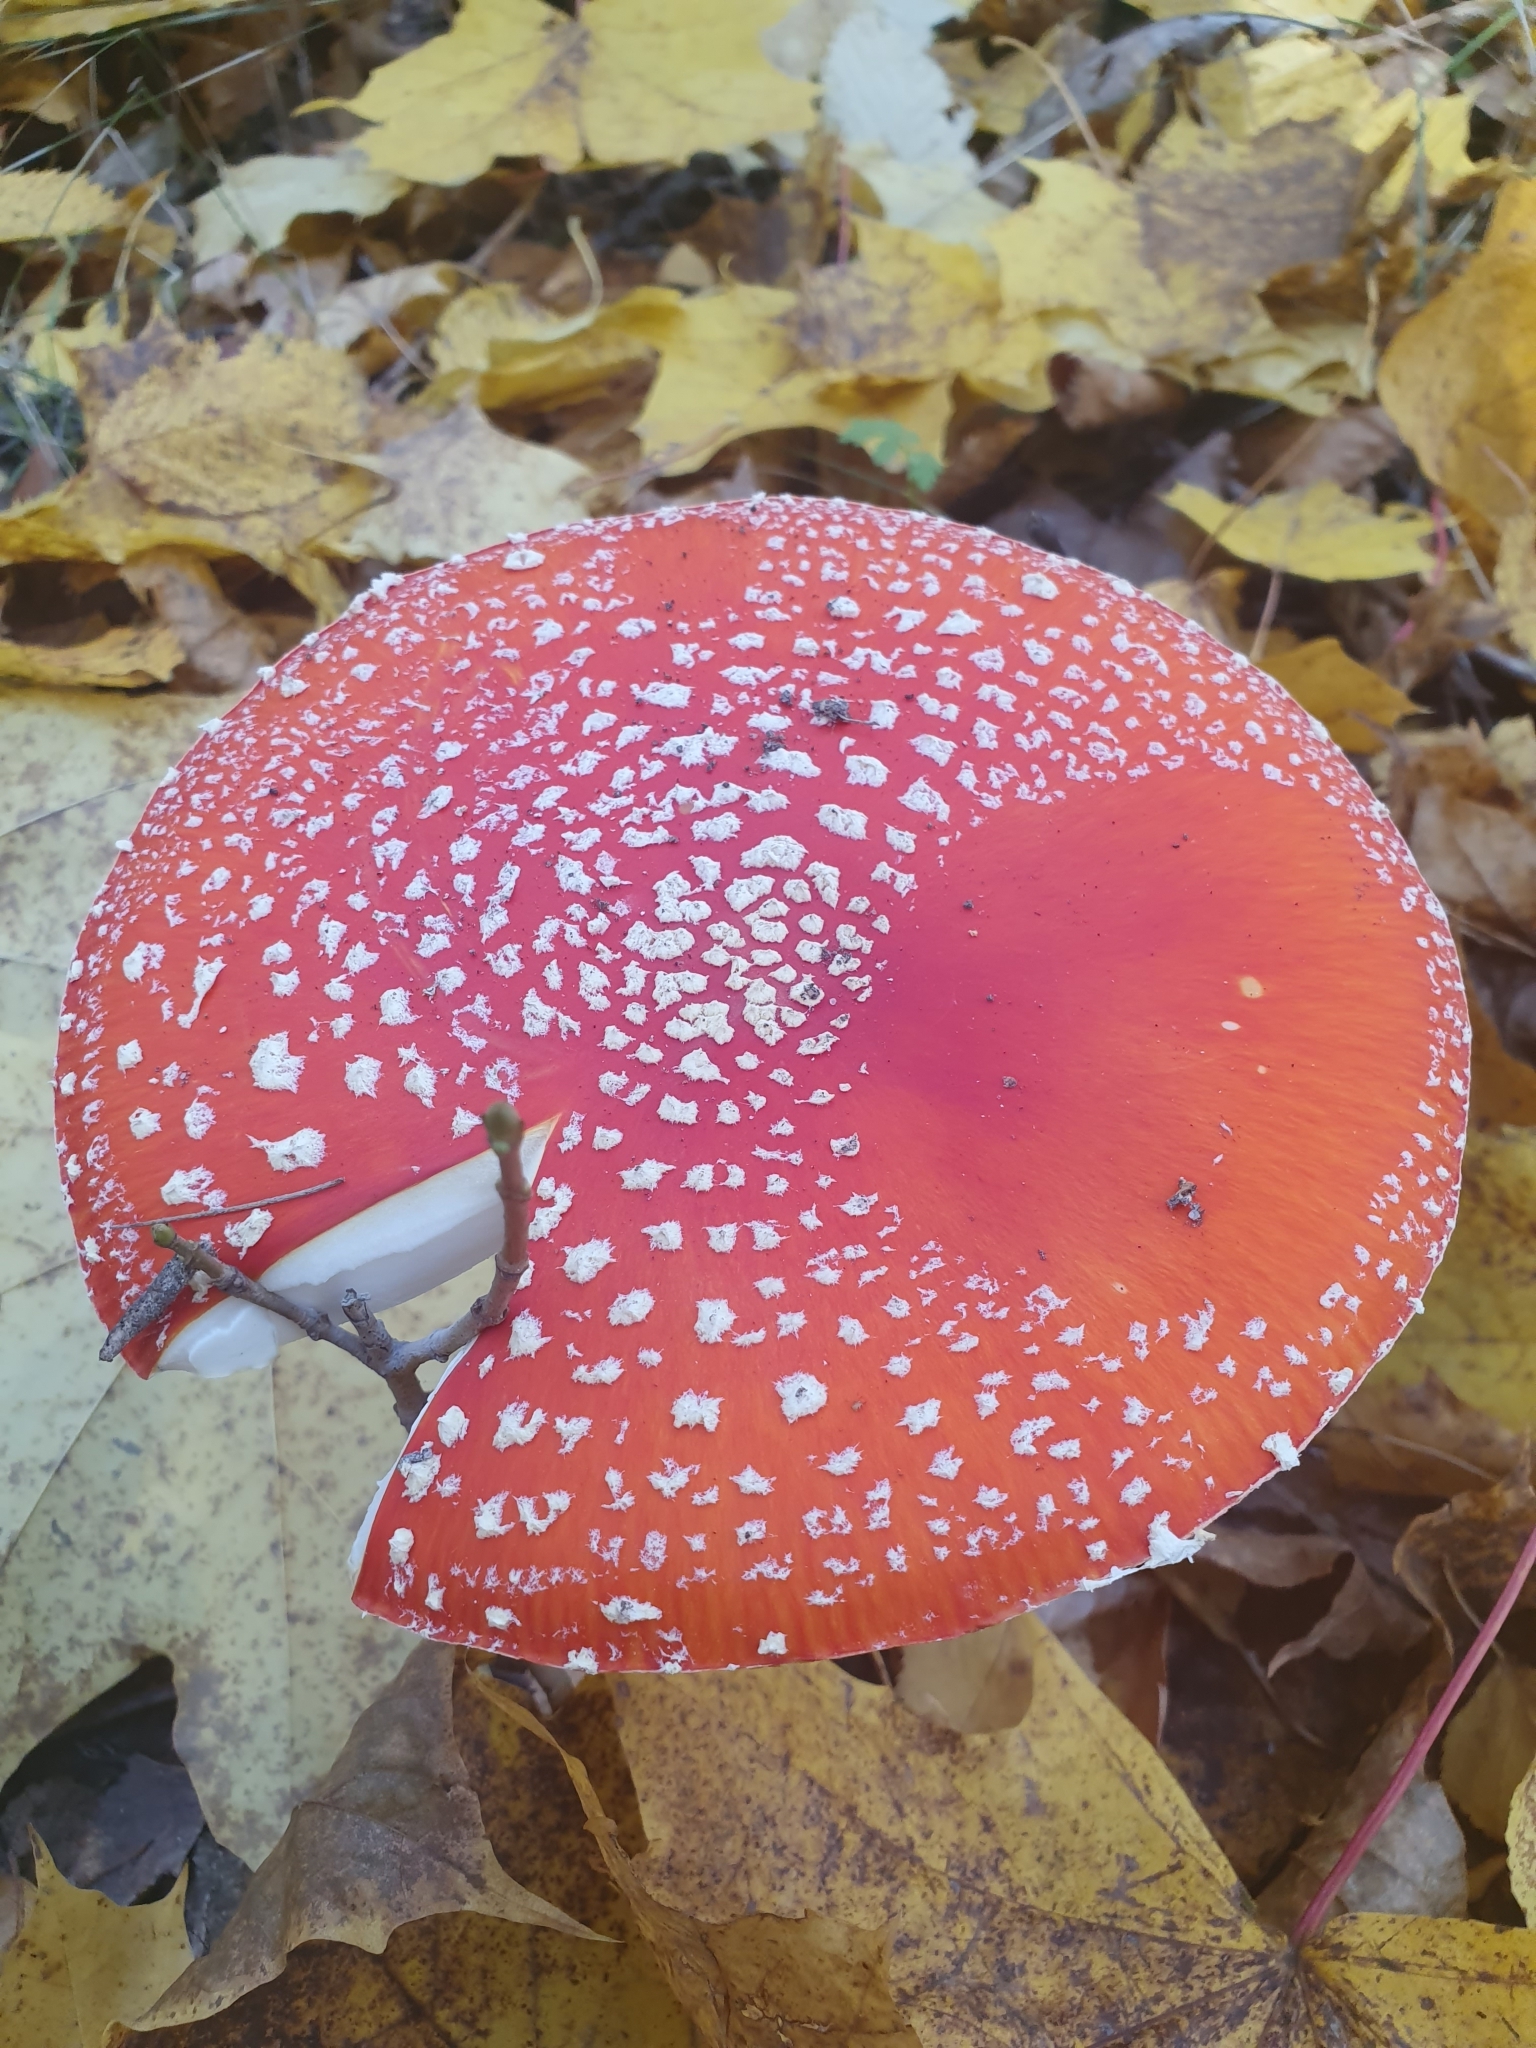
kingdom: Fungi
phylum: Basidiomycota
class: Agaricomycetes
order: Agaricales
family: Amanitaceae
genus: Amanita
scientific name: Amanita muscaria
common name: Fly agaric
